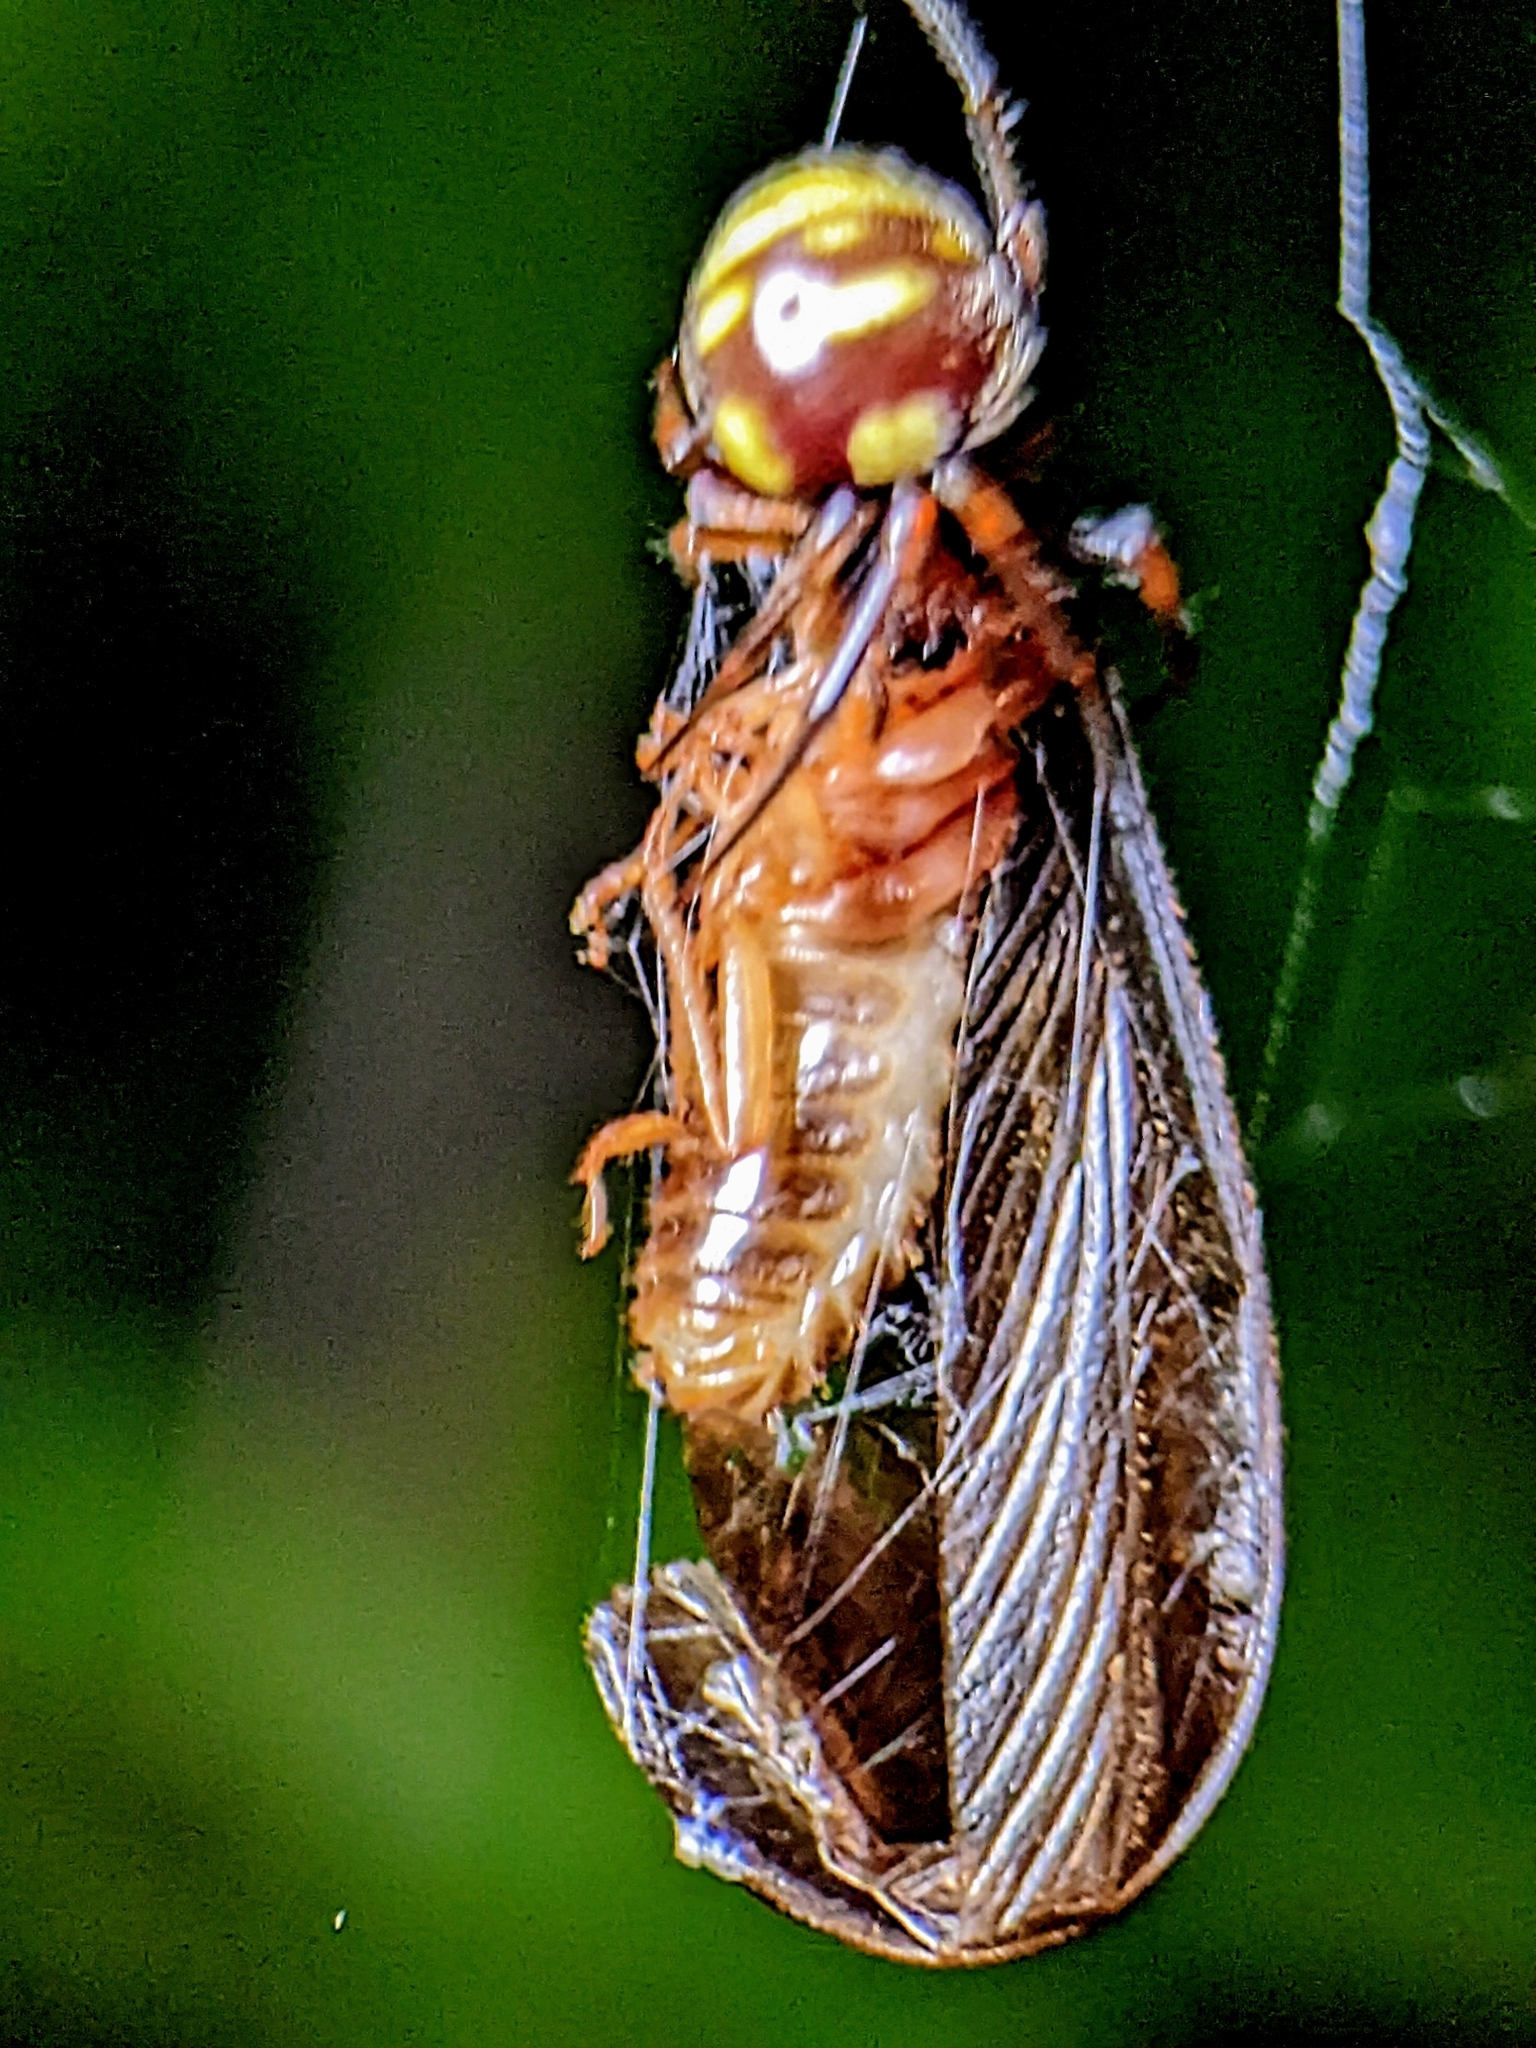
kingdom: Animalia
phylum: Arthropoda
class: Arachnida
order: Araneae
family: Araneidae
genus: Singa
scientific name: Singa perpolita
